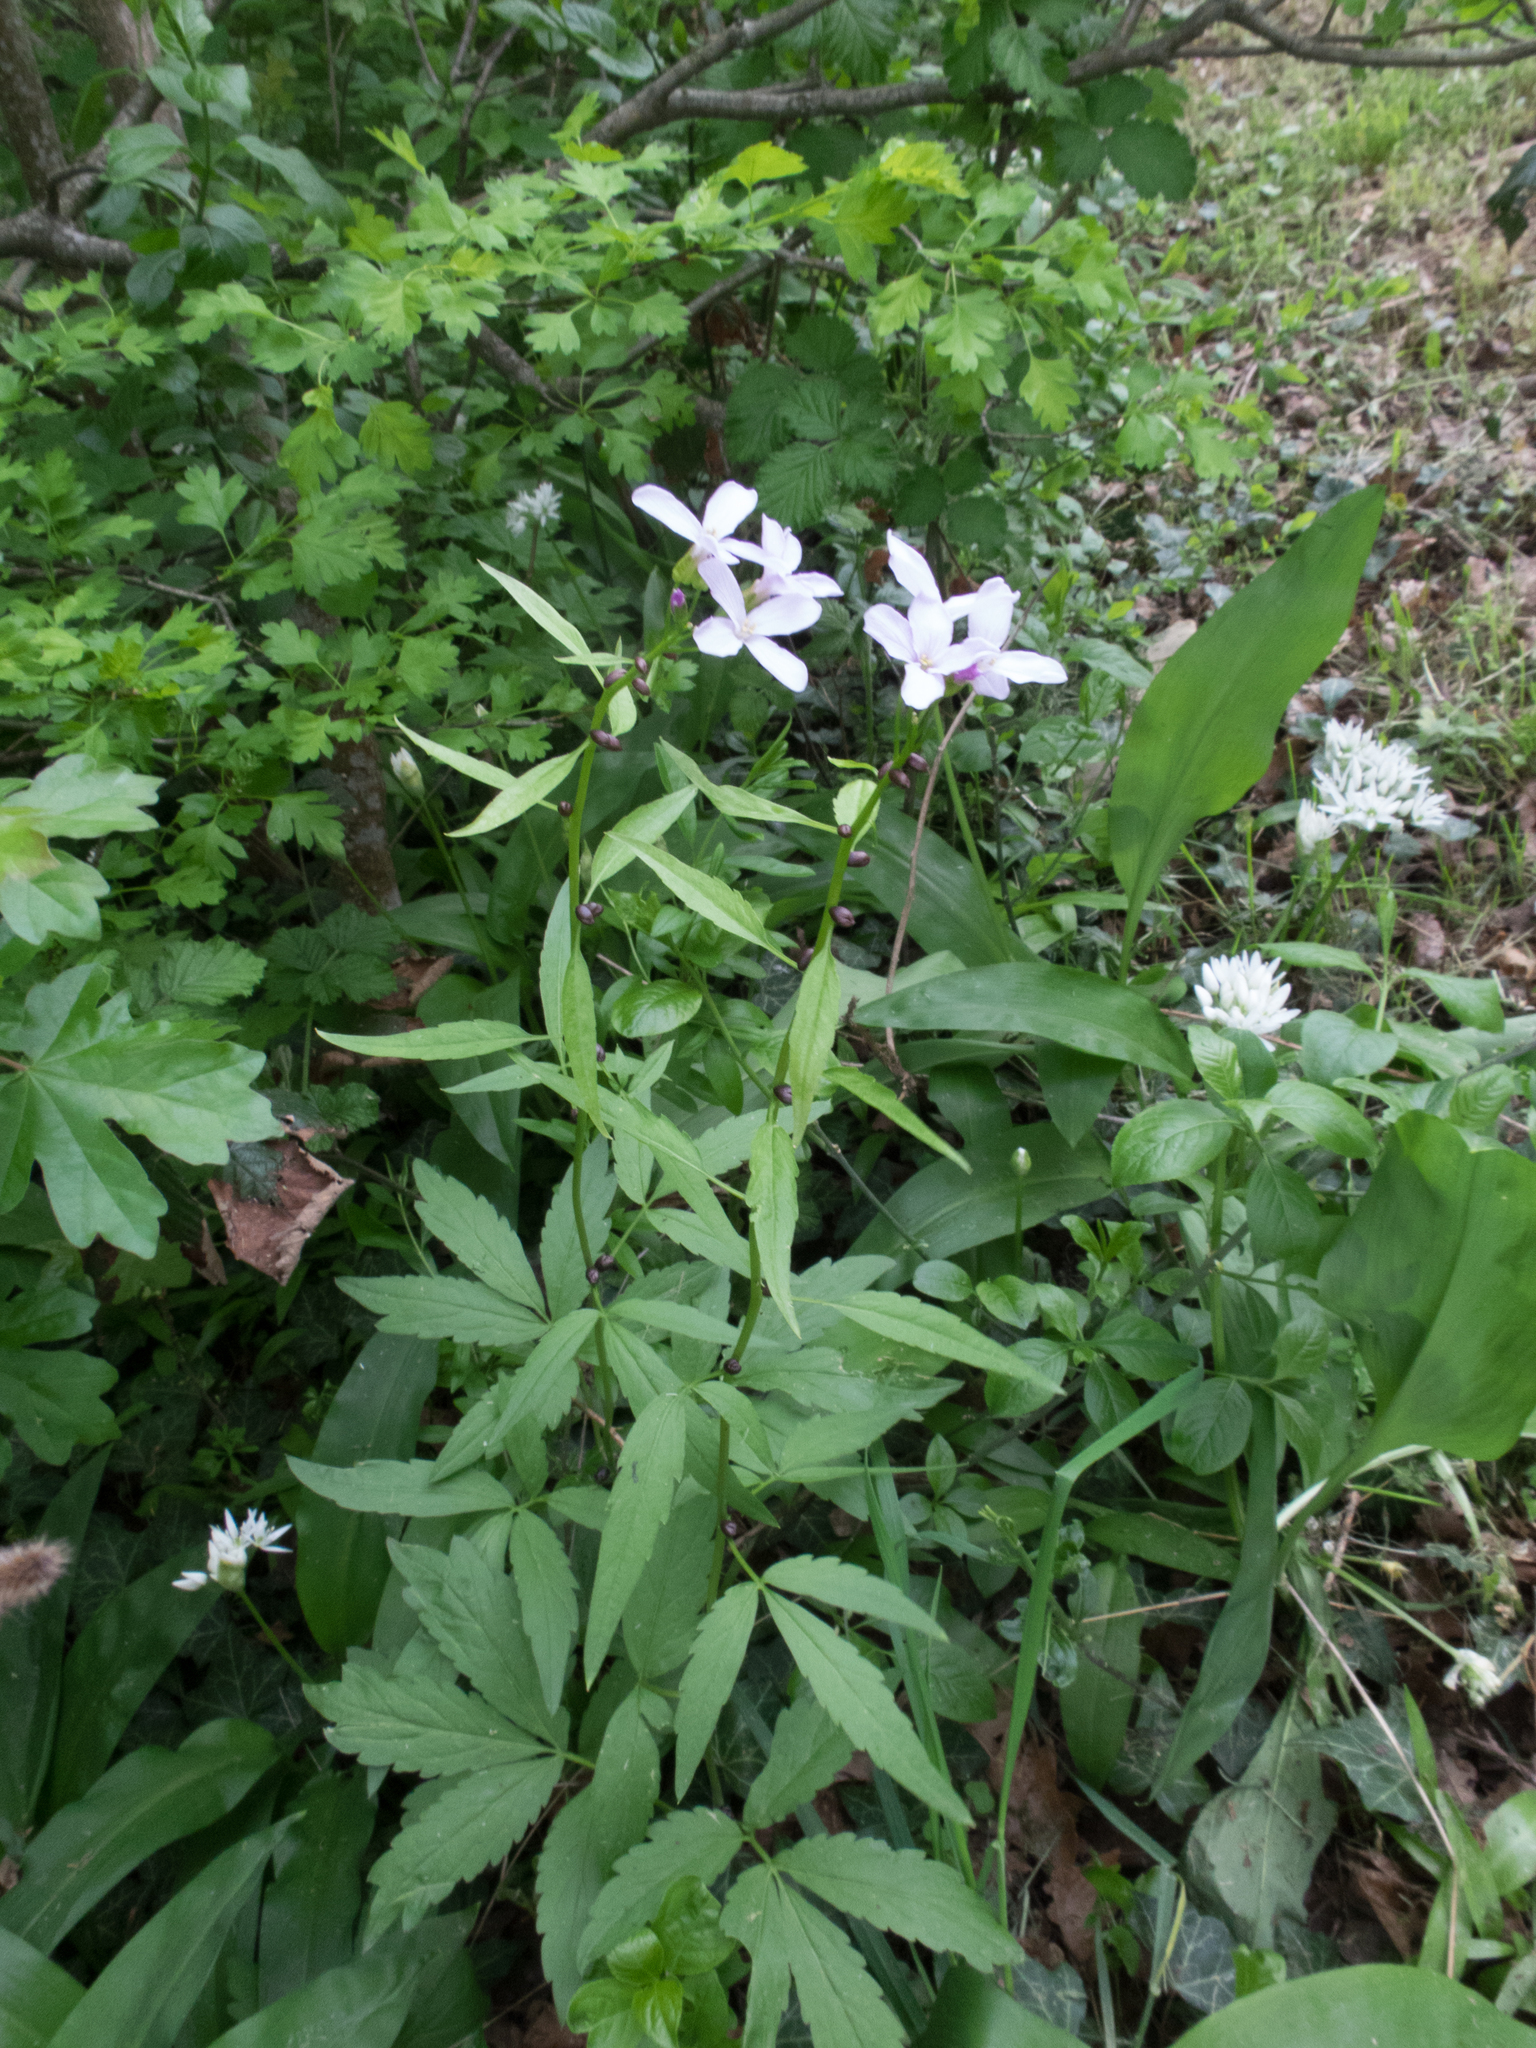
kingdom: Plantae
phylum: Tracheophyta
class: Magnoliopsida
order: Brassicales
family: Brassicaceae
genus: Cardamine
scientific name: Cardamine bulbifera
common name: Coralroot bittercress
